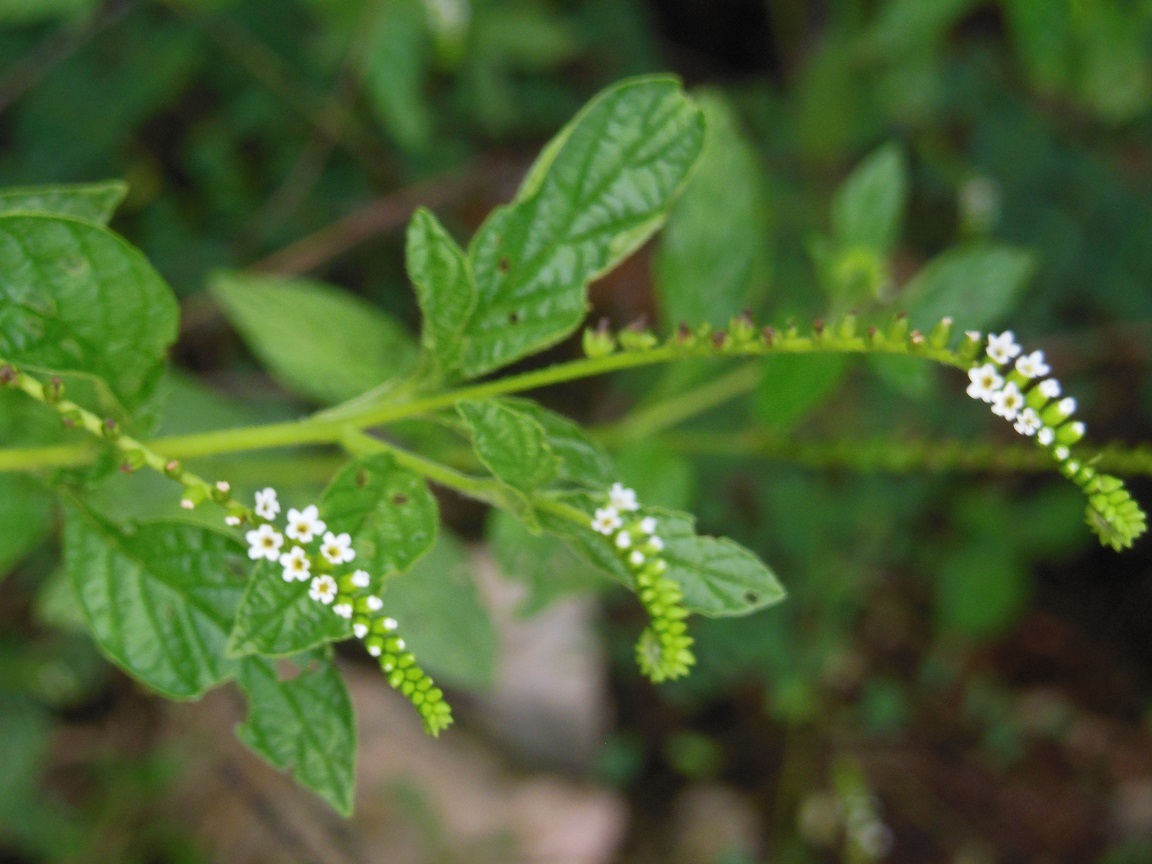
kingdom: Plantae
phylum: Tracheophyta
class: Magnoliopsida
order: Boraginales
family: Heliotropiaceae
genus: Heliotropium
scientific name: Heliotropium angiospermum
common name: Eye bright
